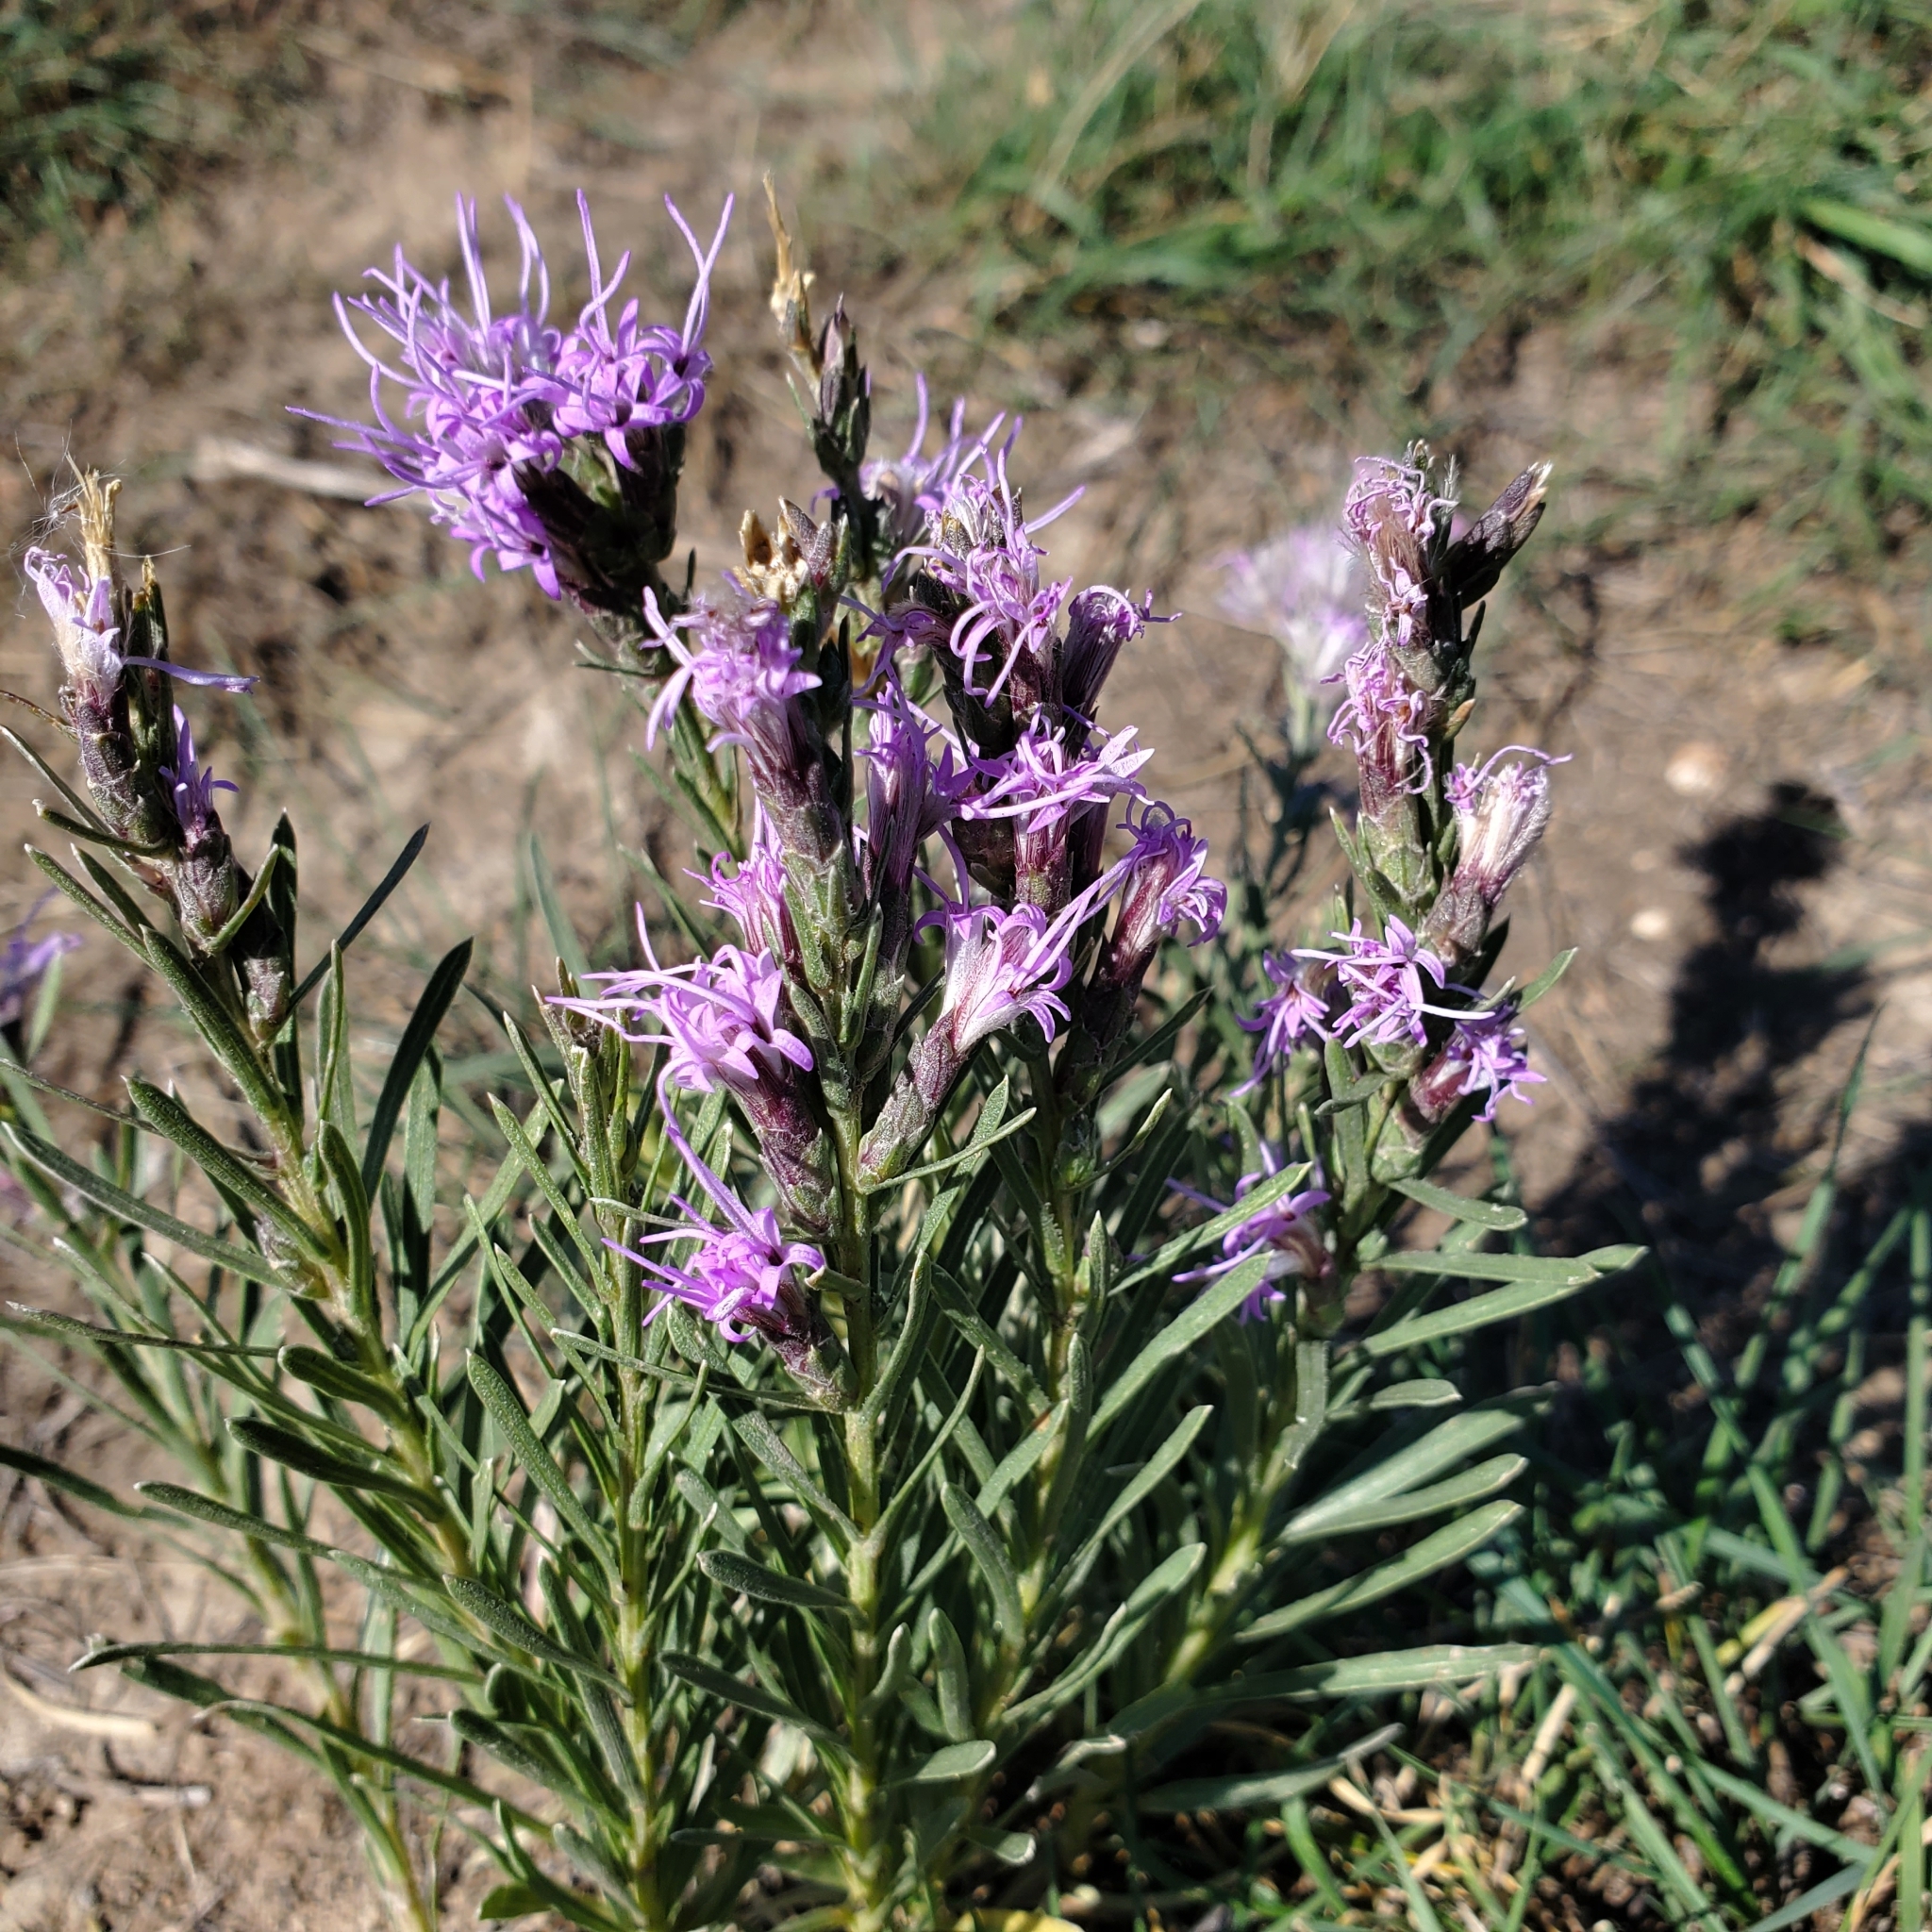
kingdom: Plantae
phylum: Tracheophyta
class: Magnoliopsida
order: Asterales
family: Asteraceae
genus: Liatris
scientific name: Liatris punctata
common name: Dotted gayfeather
